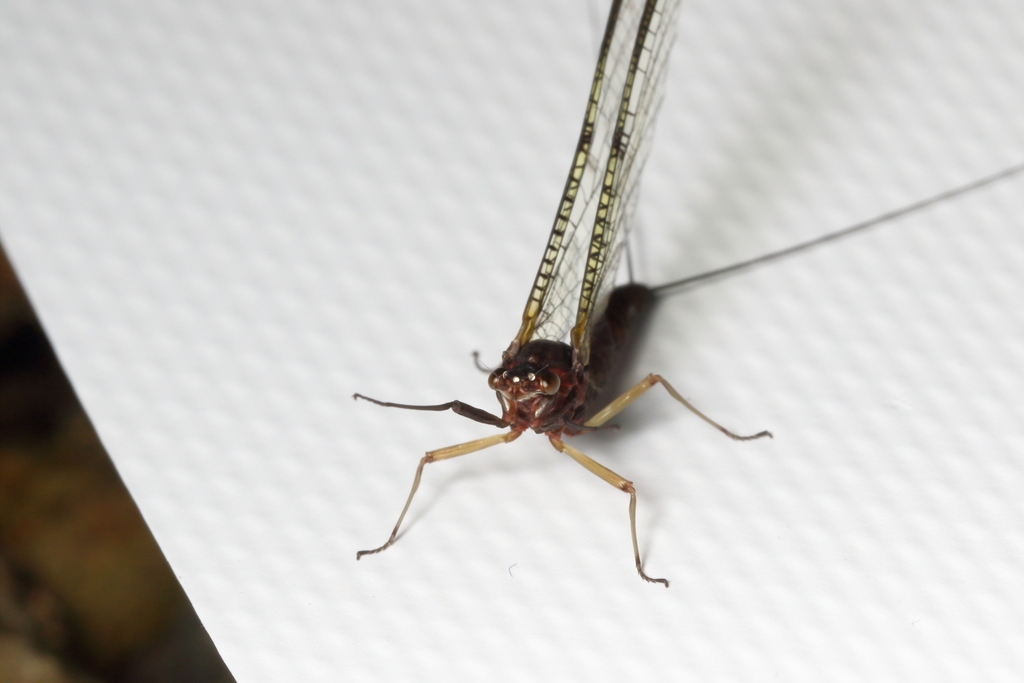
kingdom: Animalia
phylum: Arthropoda
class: Insecta
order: Ephemeroptera
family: Coloburiscidae
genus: Coloburiscus
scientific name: Coloburiscus humeralis
